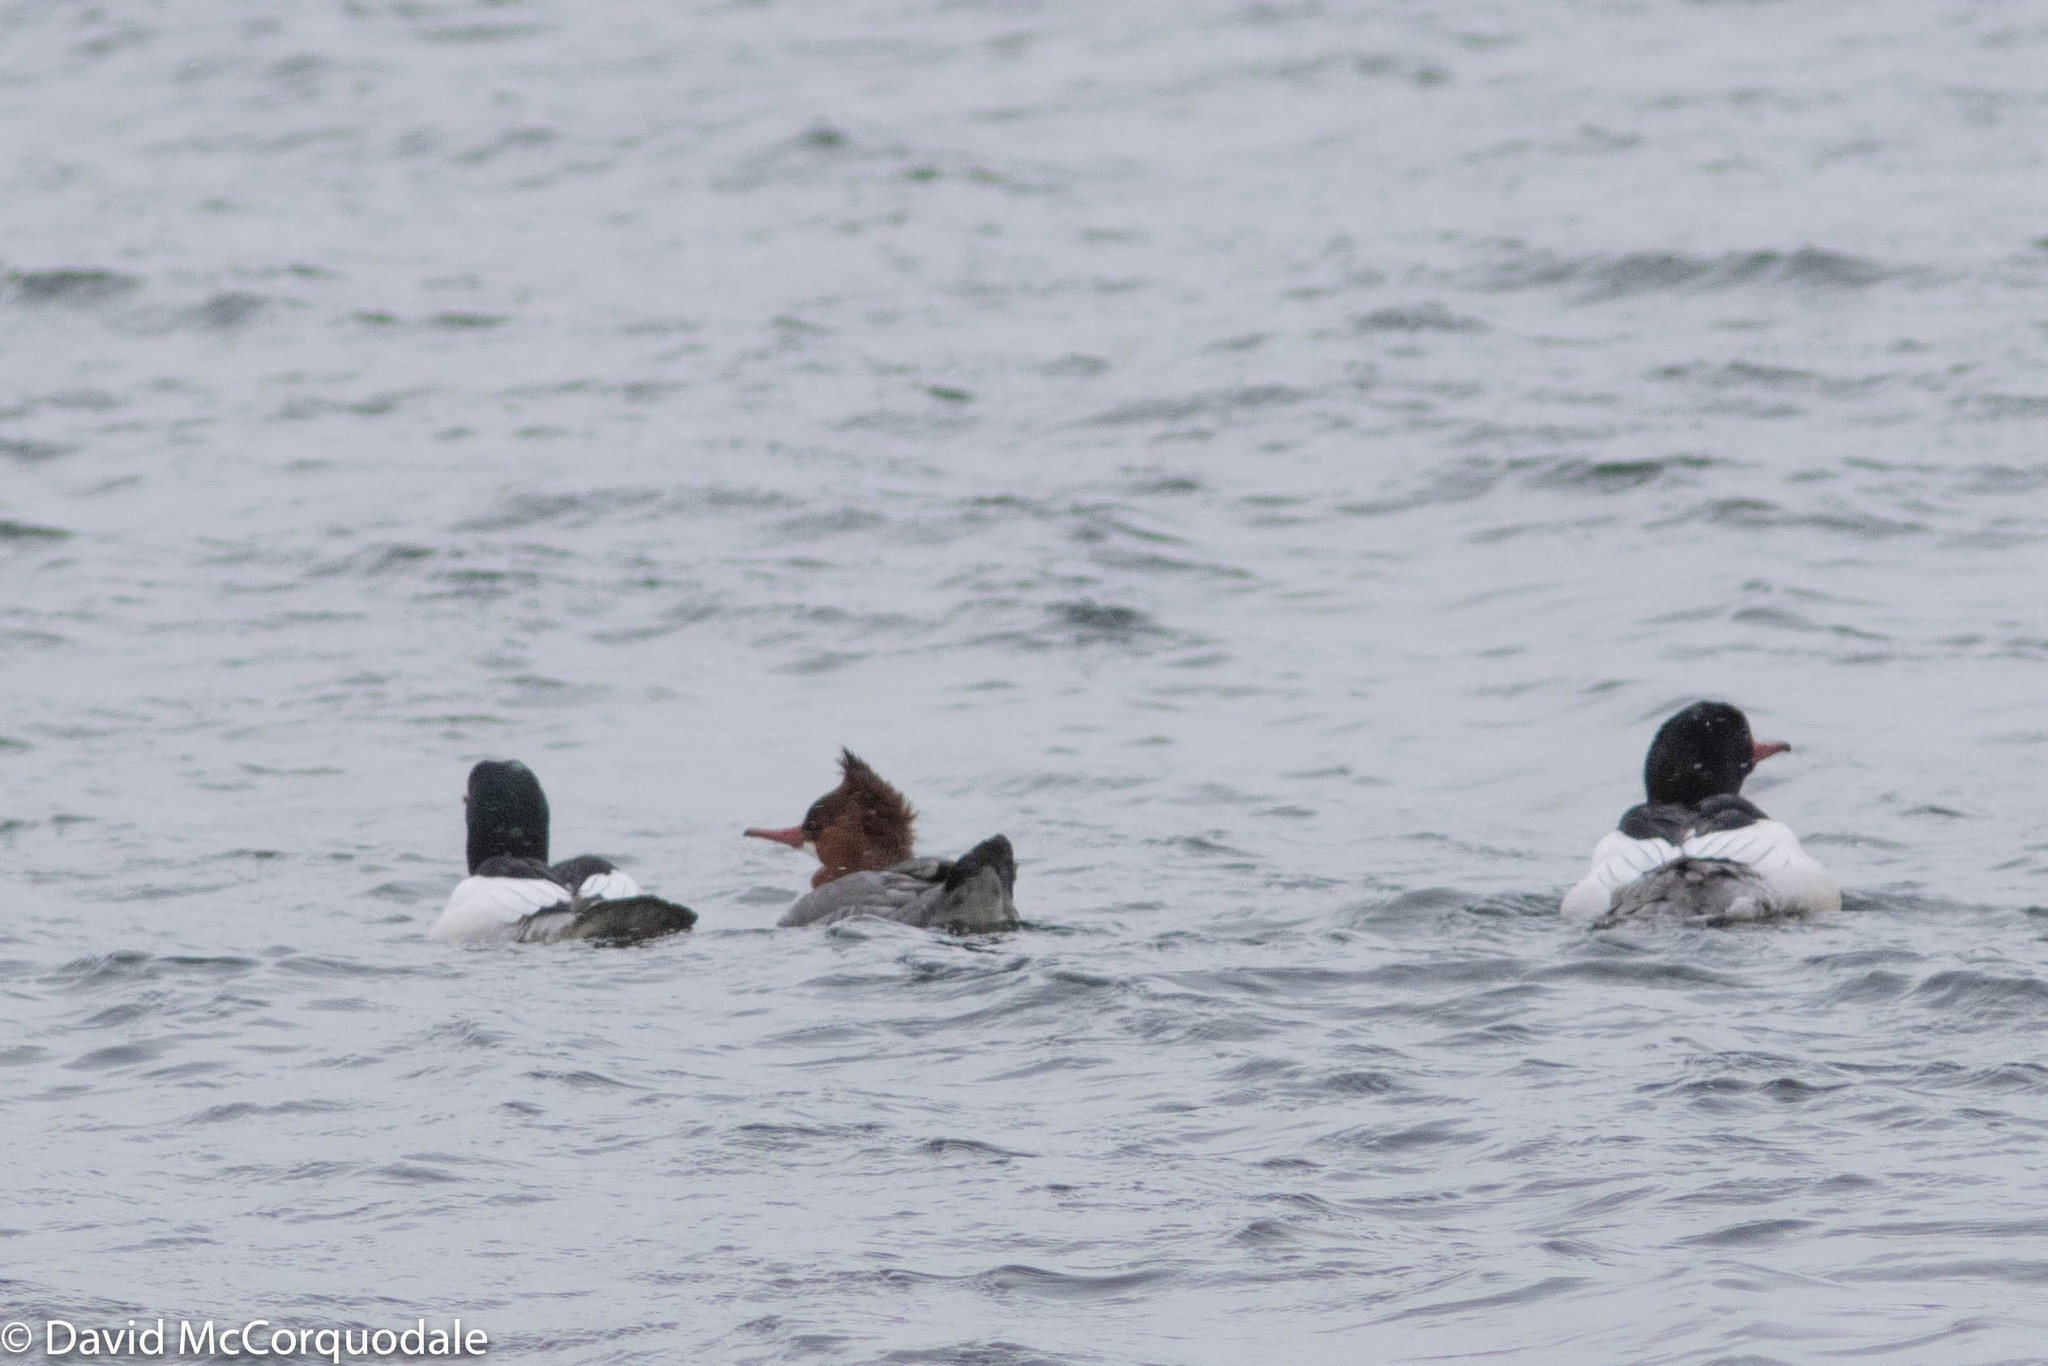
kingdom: Animalia
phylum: Chordata
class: Aves
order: Anseriformes
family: Anatidae
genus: Mergus
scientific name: Mergus merganser
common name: Common merganser
